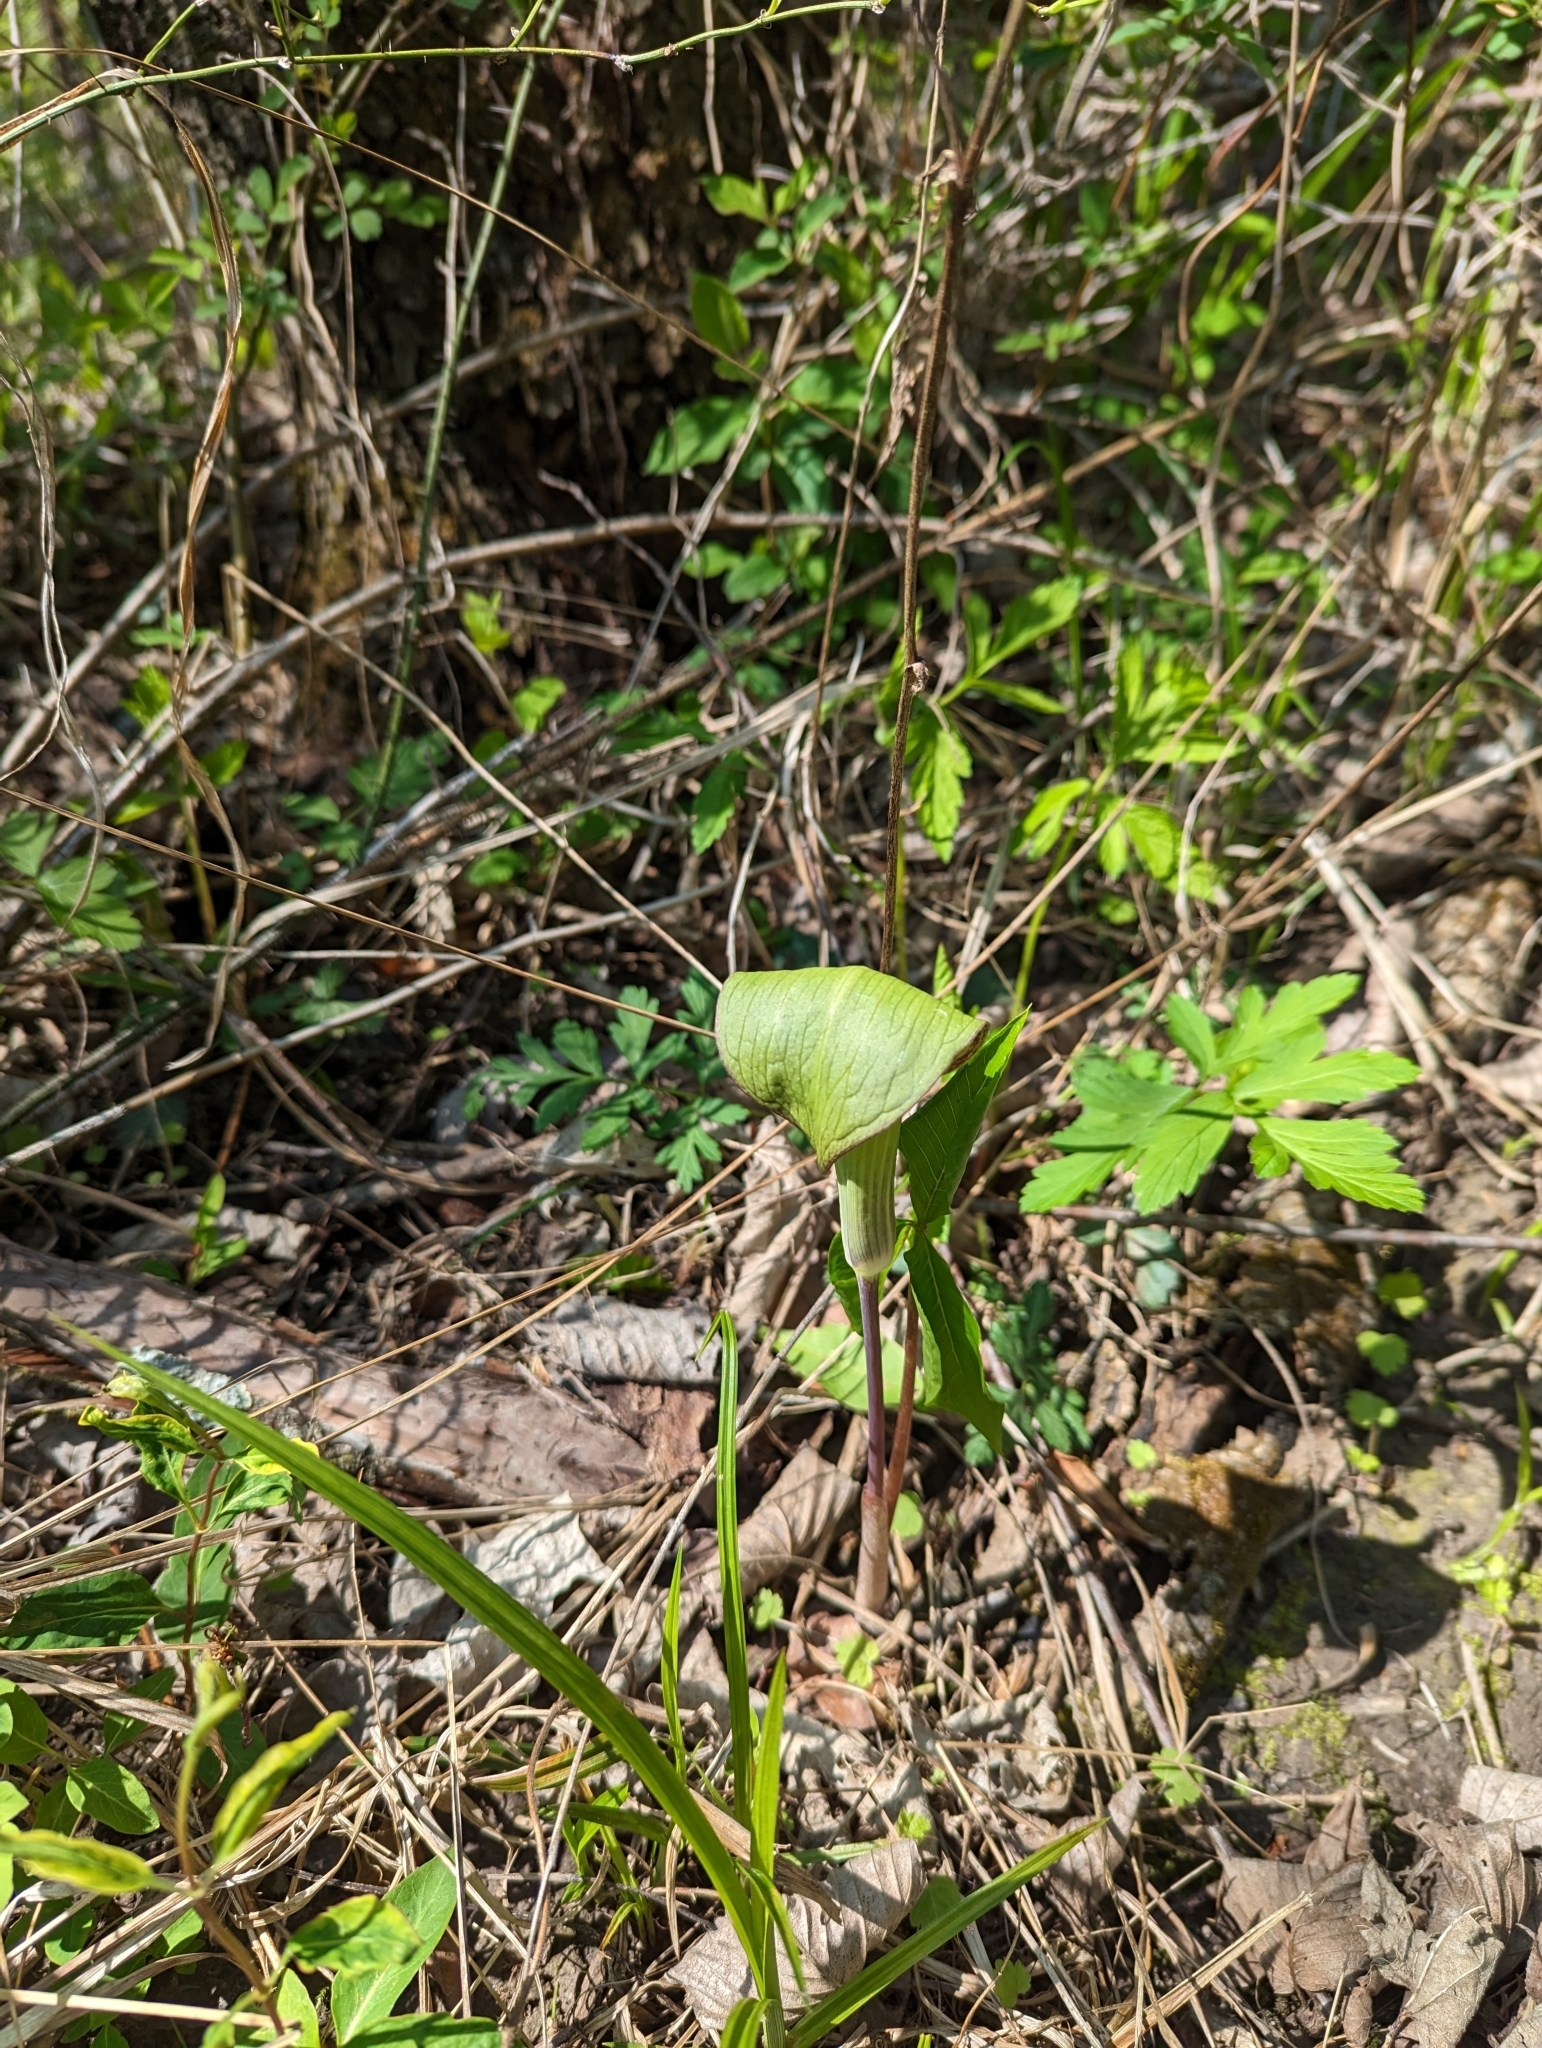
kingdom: Plantae
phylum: Tracheophyta
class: Liliopsida
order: Alismatales
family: Araceae
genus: Arisaema
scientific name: Arisaema triphyllum
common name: Jack-in-the-pulpit
